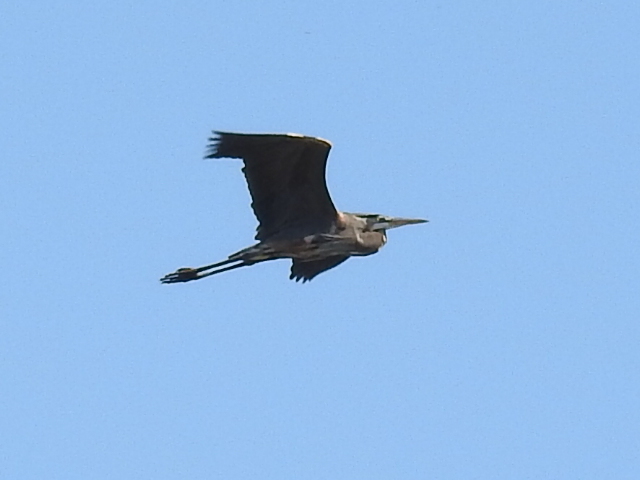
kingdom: Animalia
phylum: Chordata
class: Aves
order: Pelecaniformes
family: Ardeidae
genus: Ardea
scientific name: Ardea herodias
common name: Great blue heron
